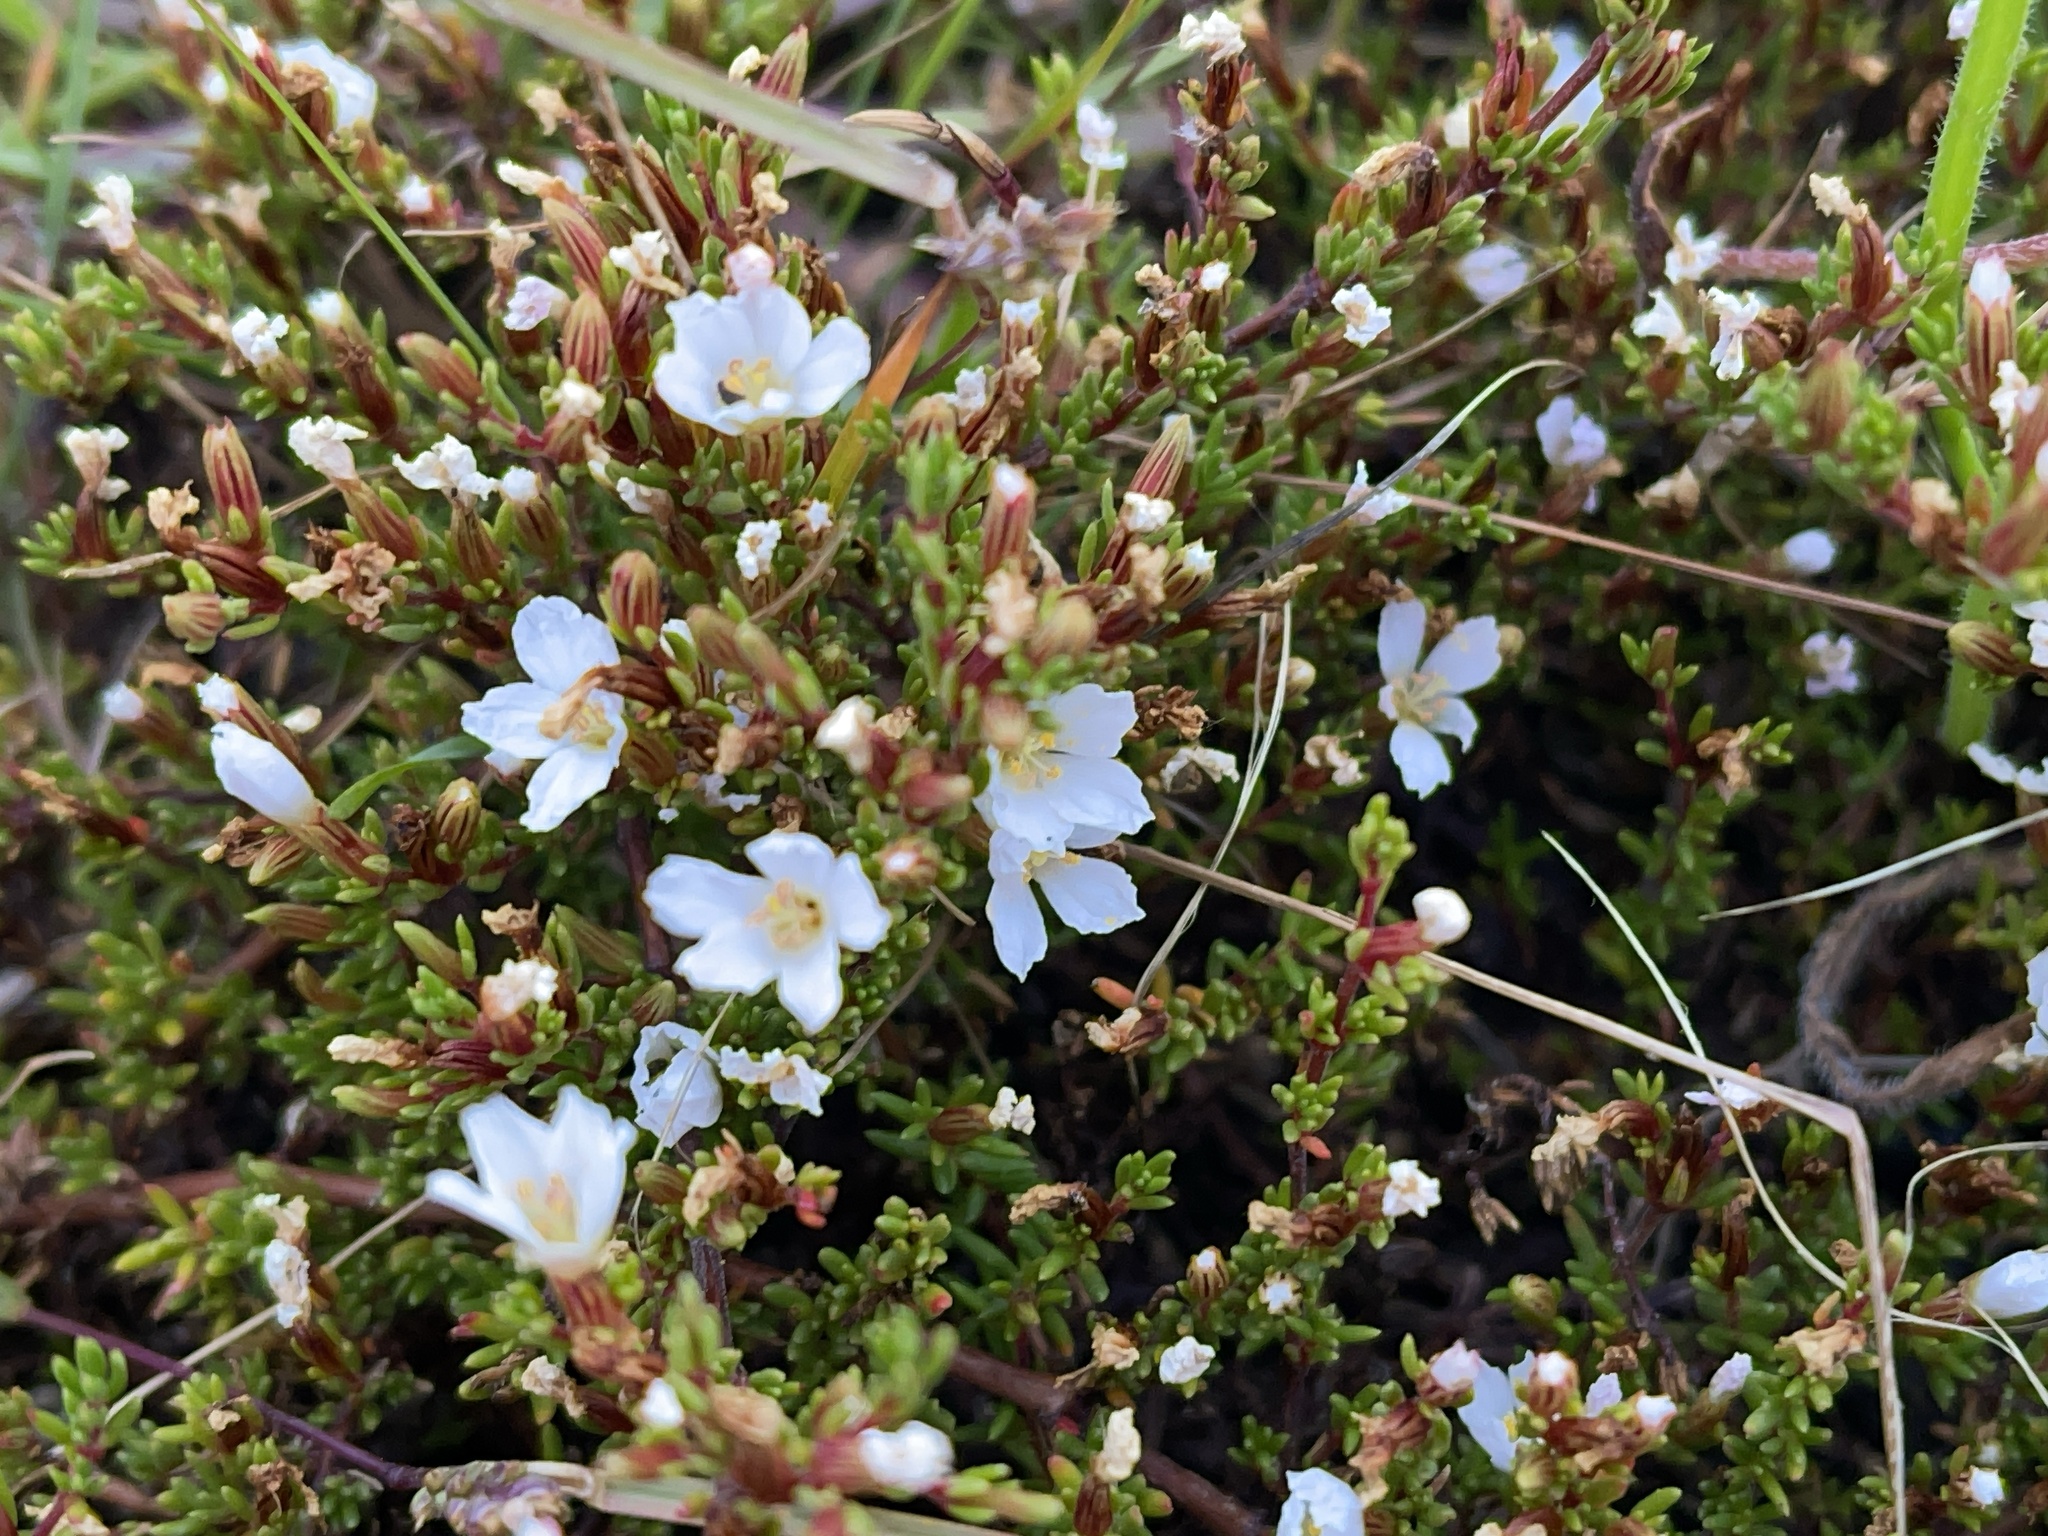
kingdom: Plantae
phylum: Tracheophyta
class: Magnoliopsida
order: Caryophyllales
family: Frankeniaceae
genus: Frankenia
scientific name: Frankenia pauciflora
